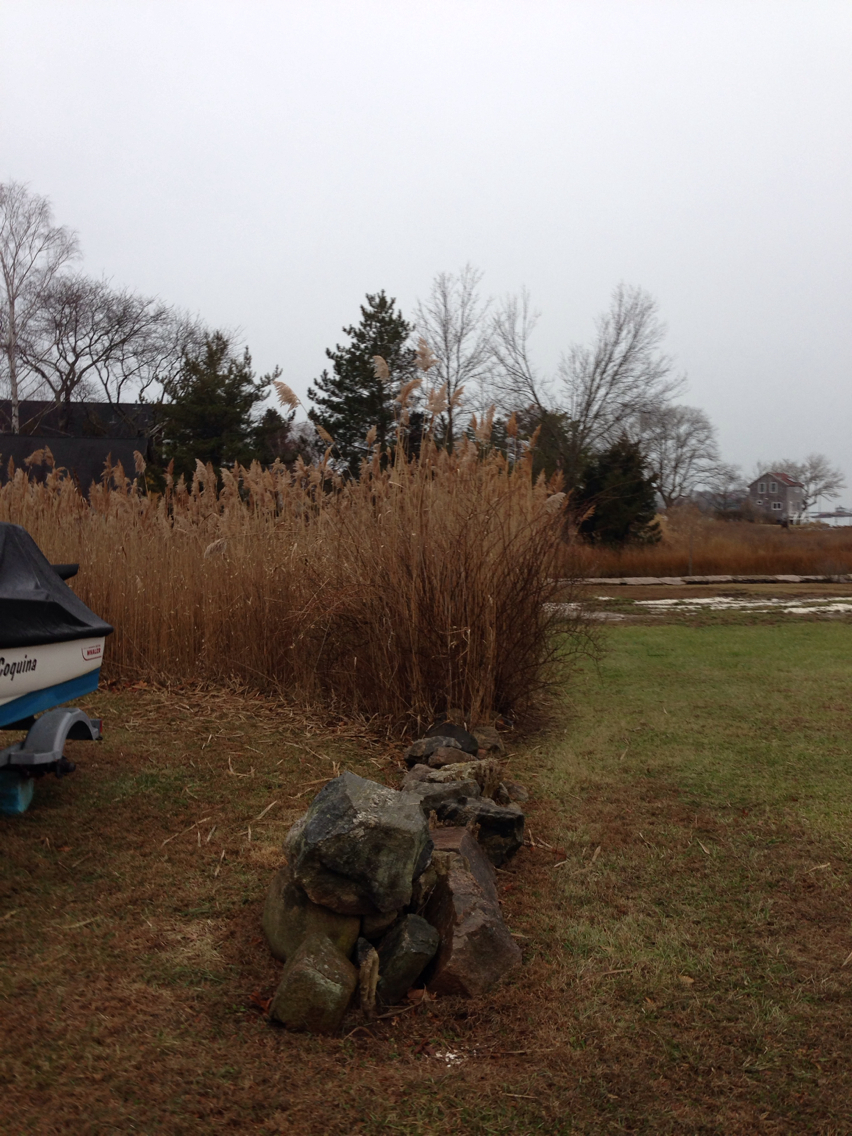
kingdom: Plantae
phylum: Tracheophyta
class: Liliopsida
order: Poales
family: Poaceae
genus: Phragmites
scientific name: Phragmites australis
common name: Common reed
